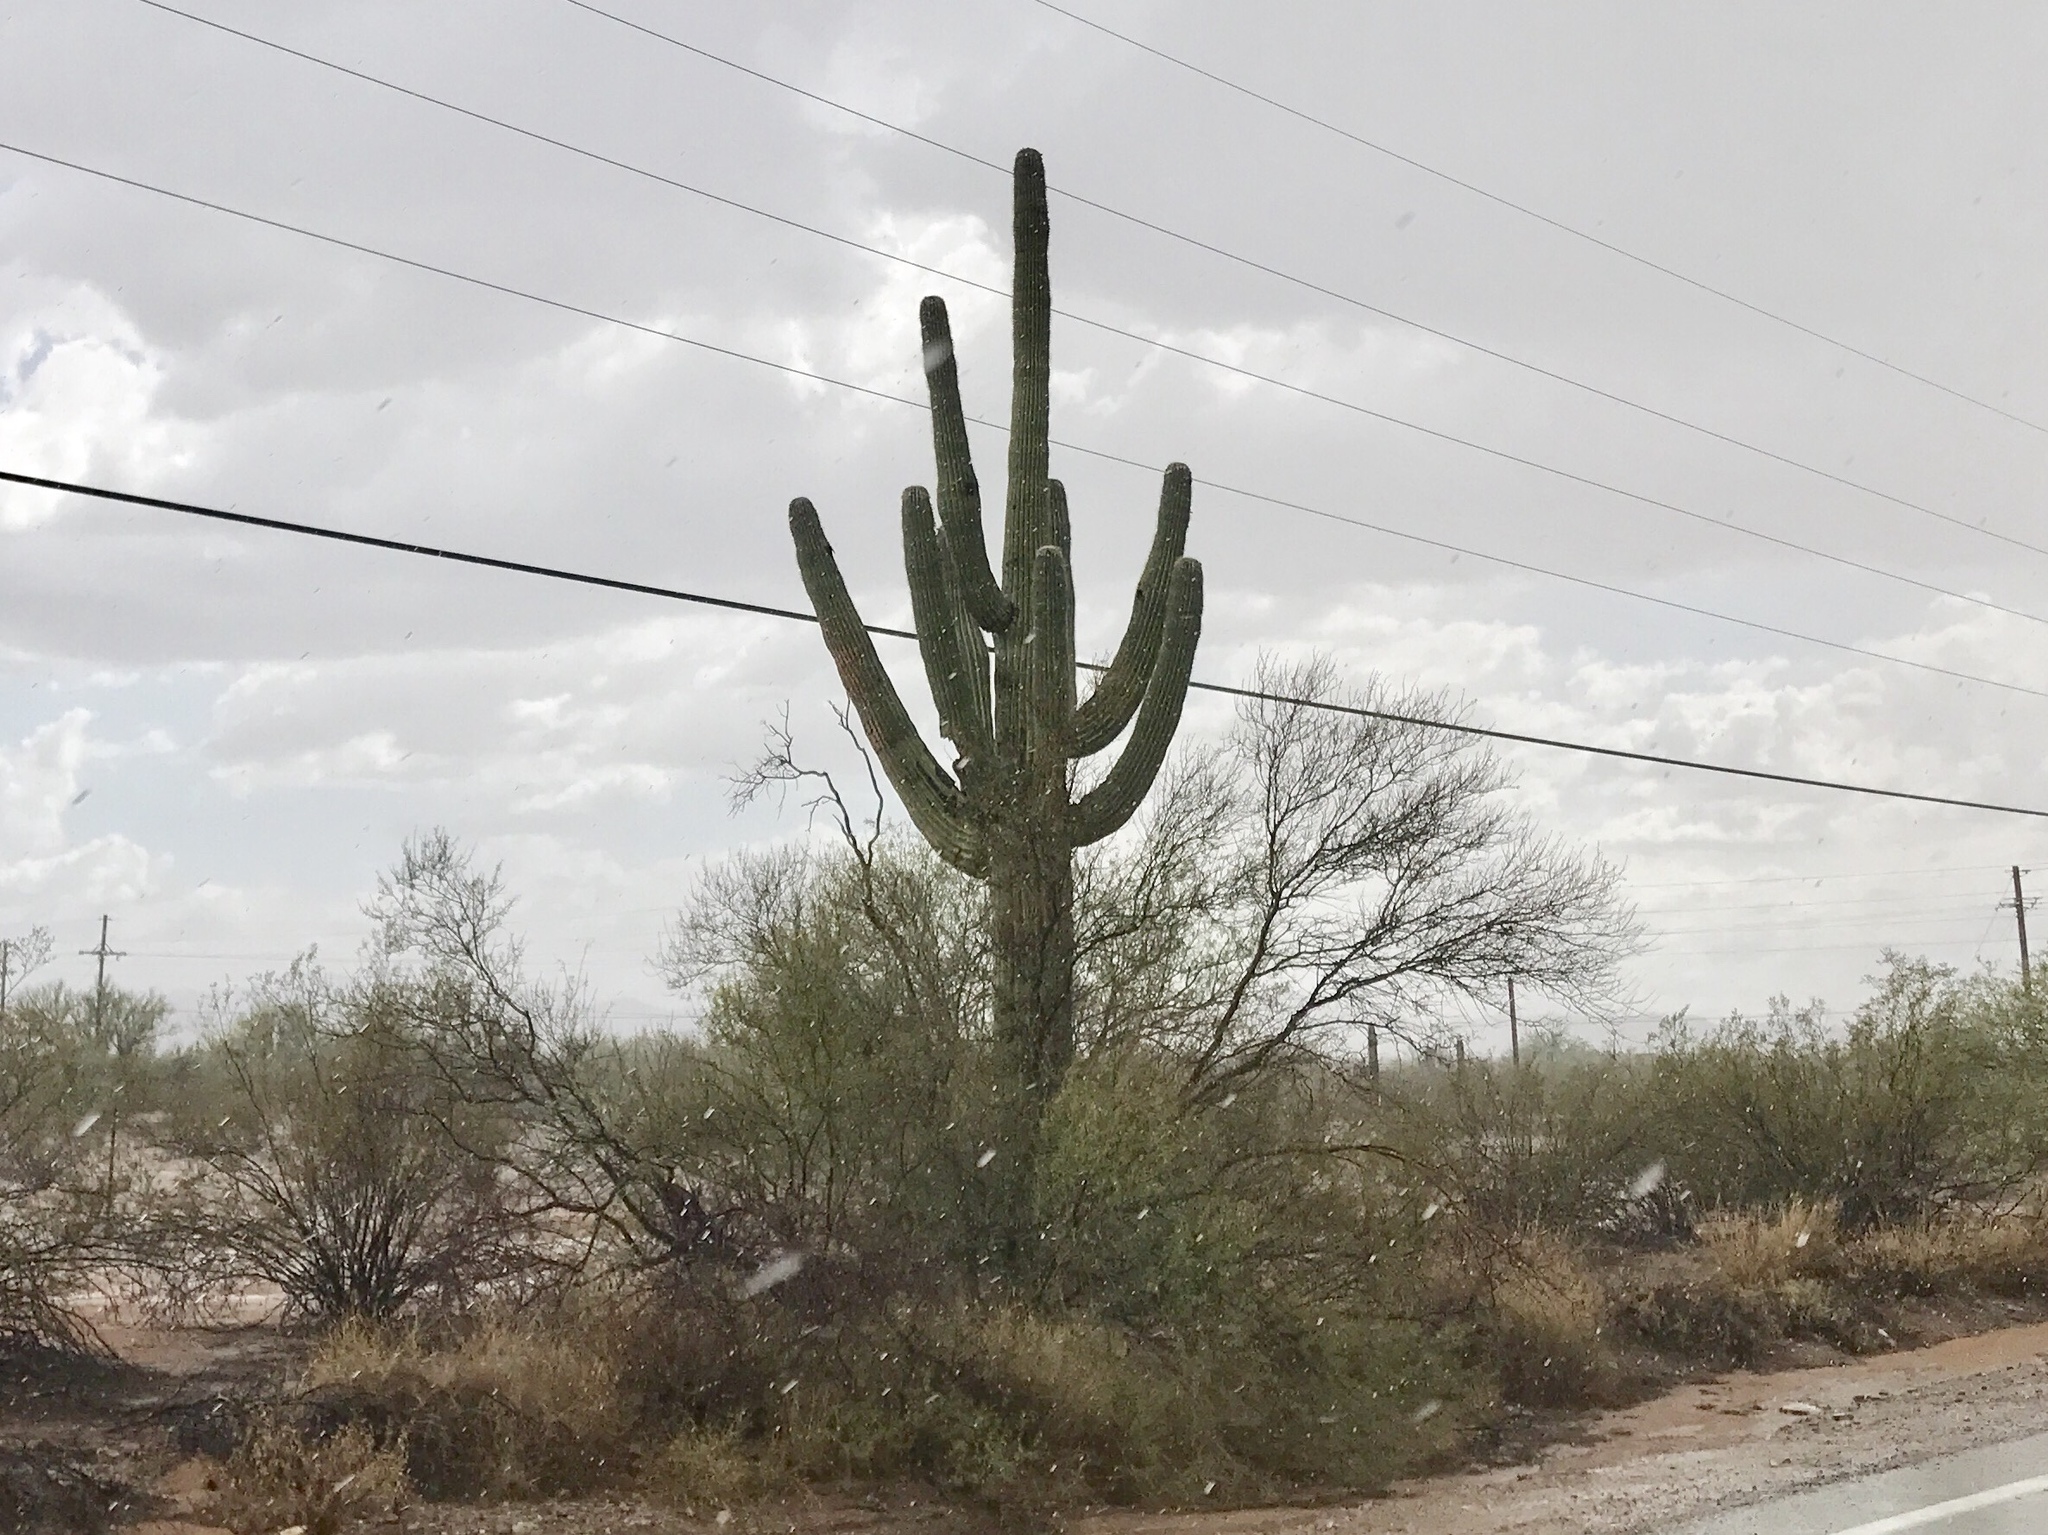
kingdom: Plantae
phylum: Tracheophyta
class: Magnoliopsida
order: Caryophyllales
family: Cactaceae
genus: Carnegiea
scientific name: Carnegiea gigantea
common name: Saguaro
